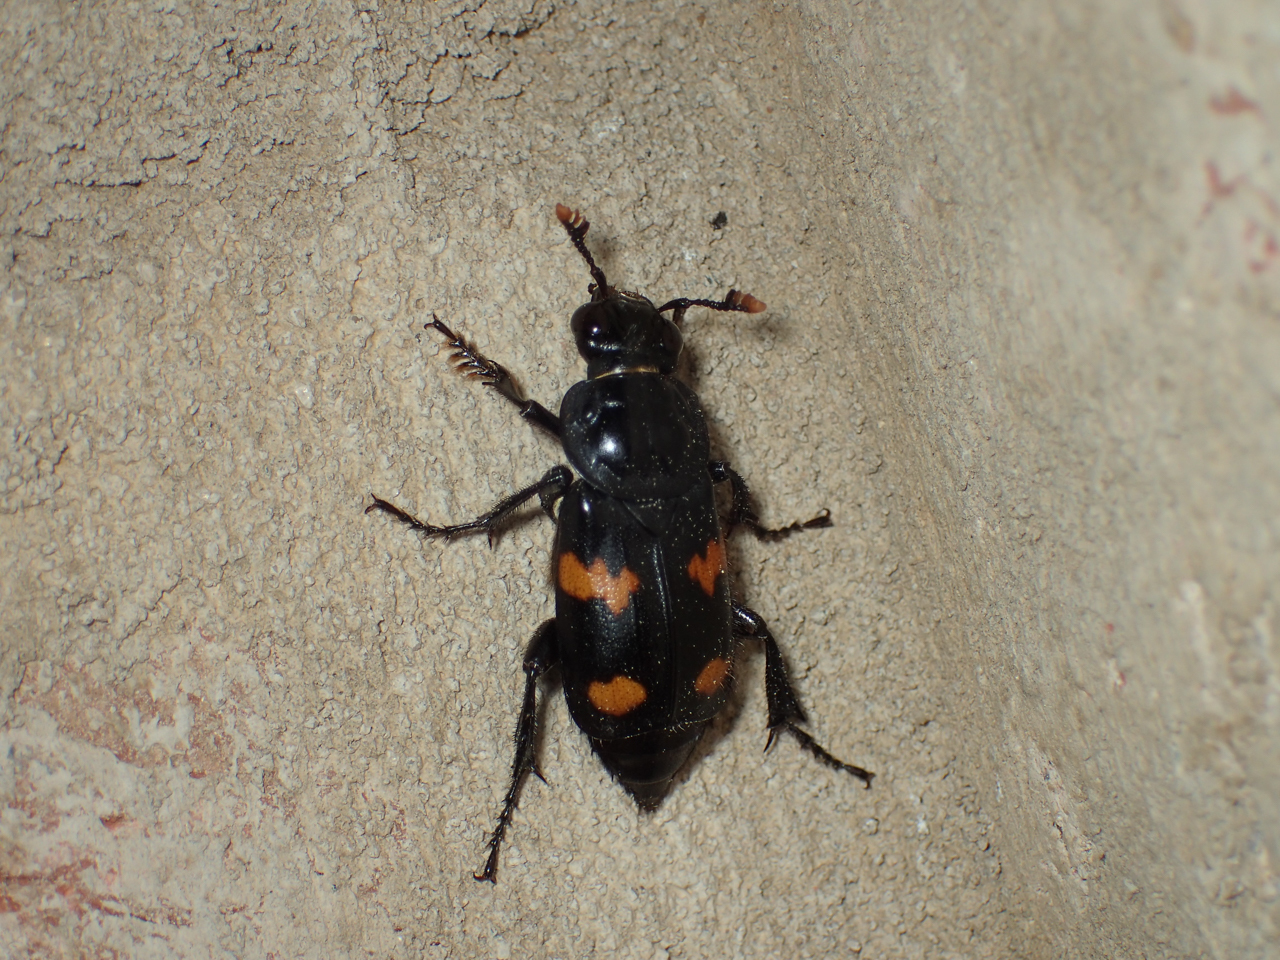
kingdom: Animalia
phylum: Arthropoda
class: Insecta
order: Coleoptera
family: Staphylinidae
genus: Nicrophorus
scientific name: Nicrophorus orbicollis
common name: Roundneck sexton beetle
